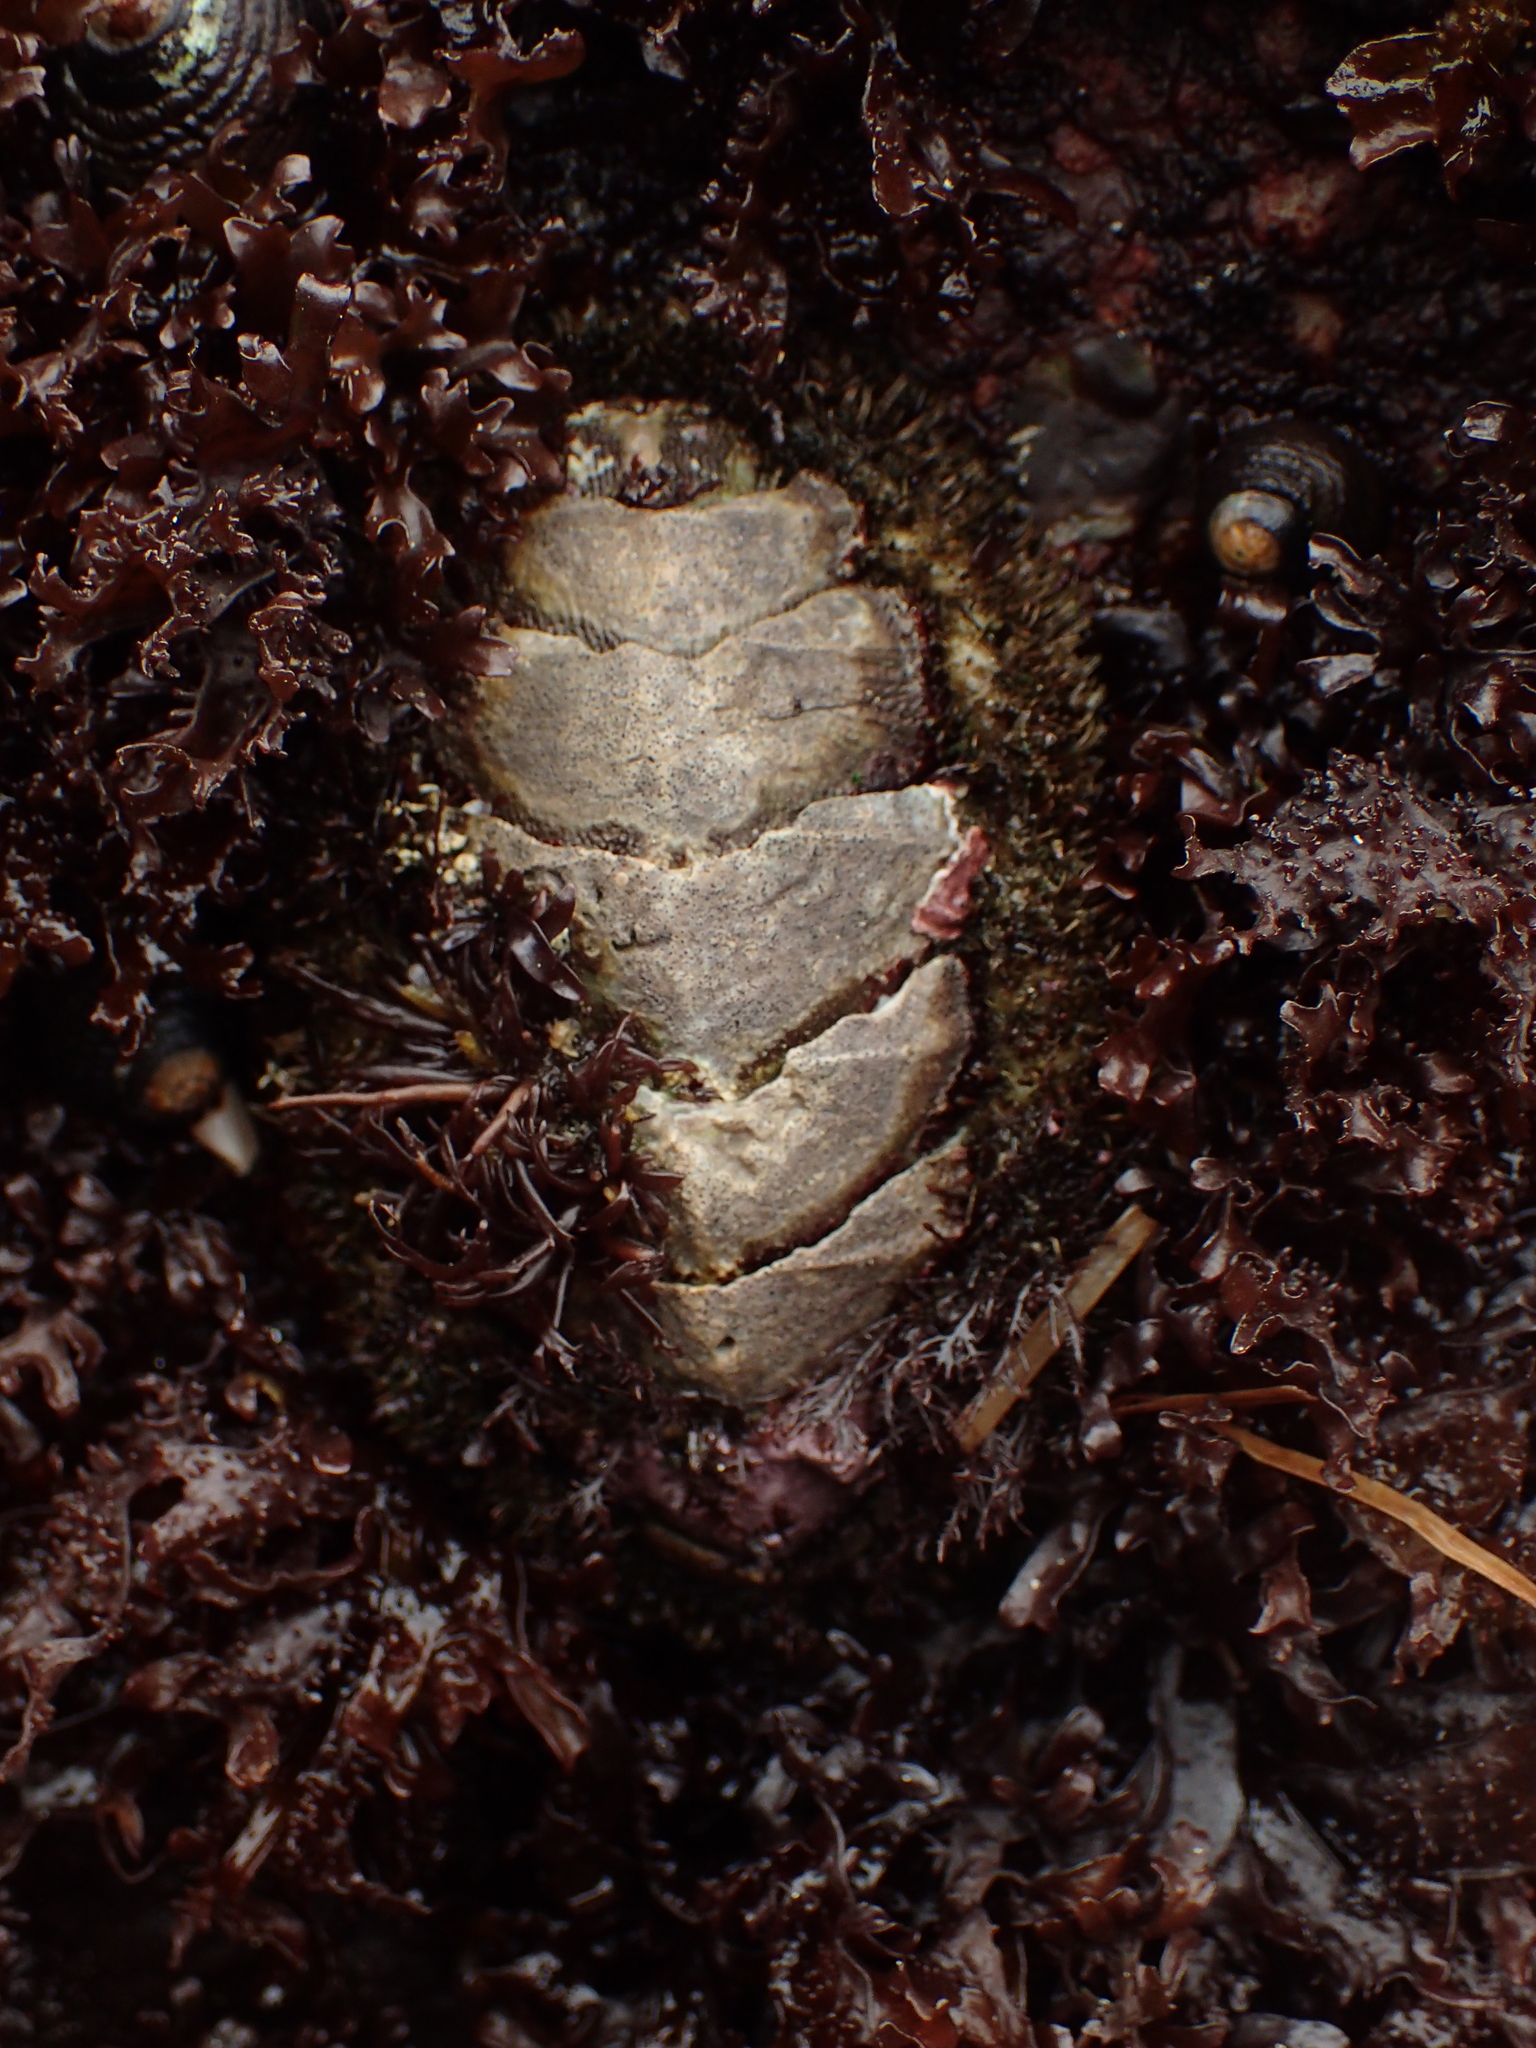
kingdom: Animalia
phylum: Mollusca
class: Polyplacophora
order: Chitonida
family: Mopaliidae
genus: Mopalia
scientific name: Mopalia muscosa
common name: Mossy chiton
